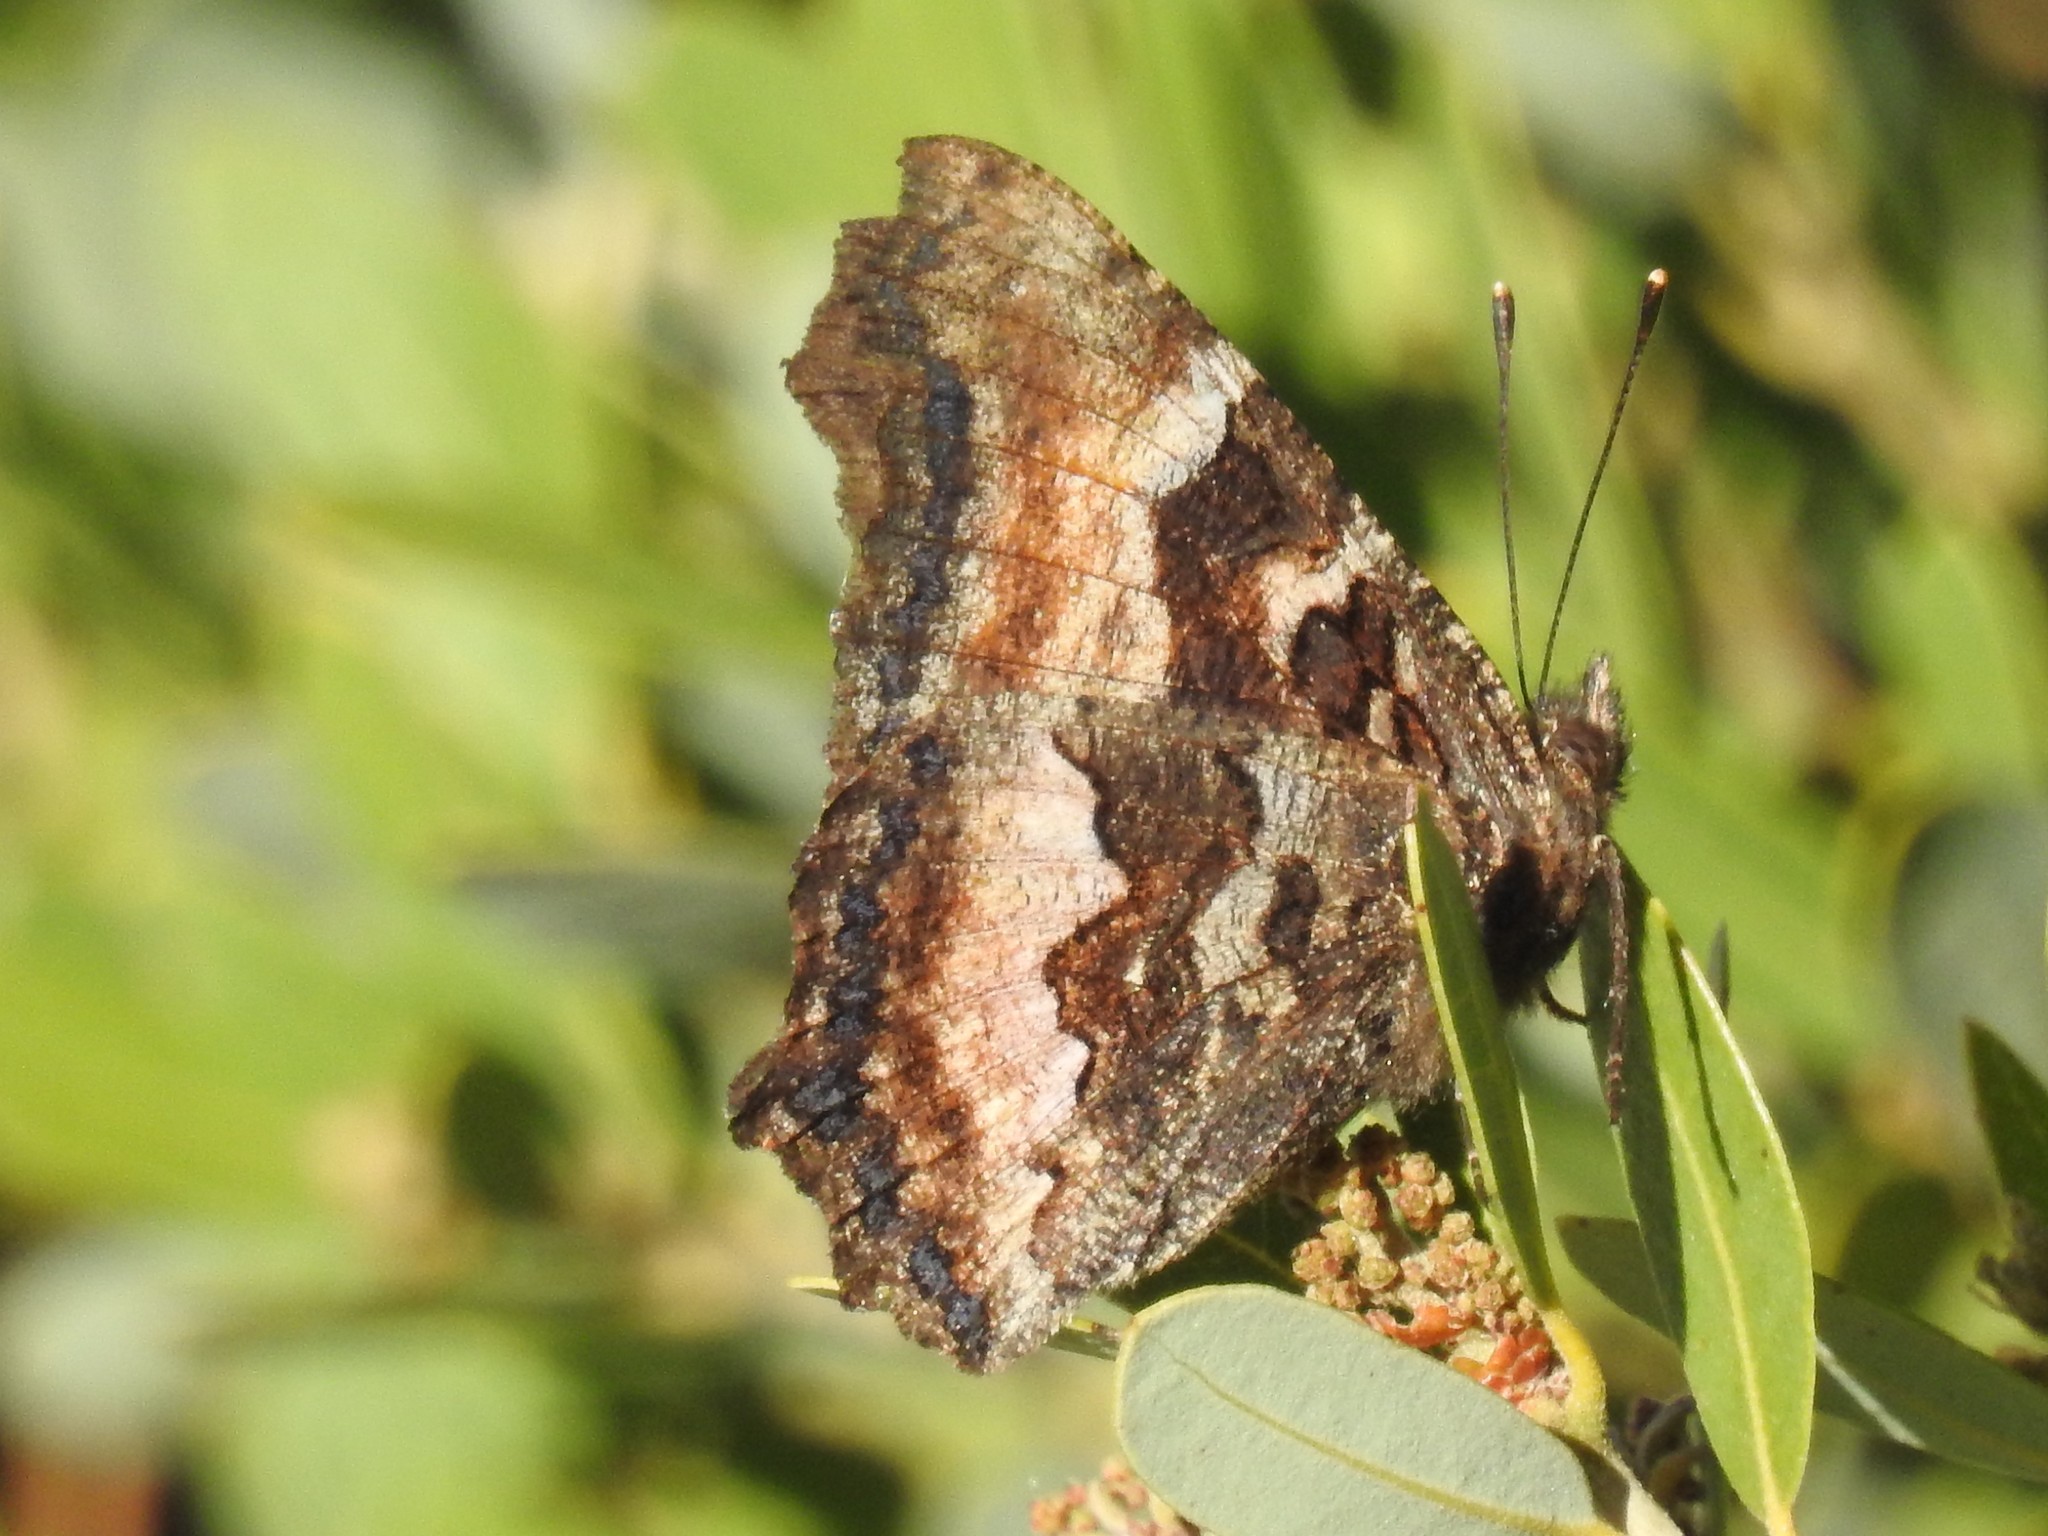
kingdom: Animalia
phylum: Arthropoda
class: Insecta
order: Lepidoptera
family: Nymphalidae
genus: Nymphalis
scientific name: Nymphalis californica
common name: California tortoiseshell
